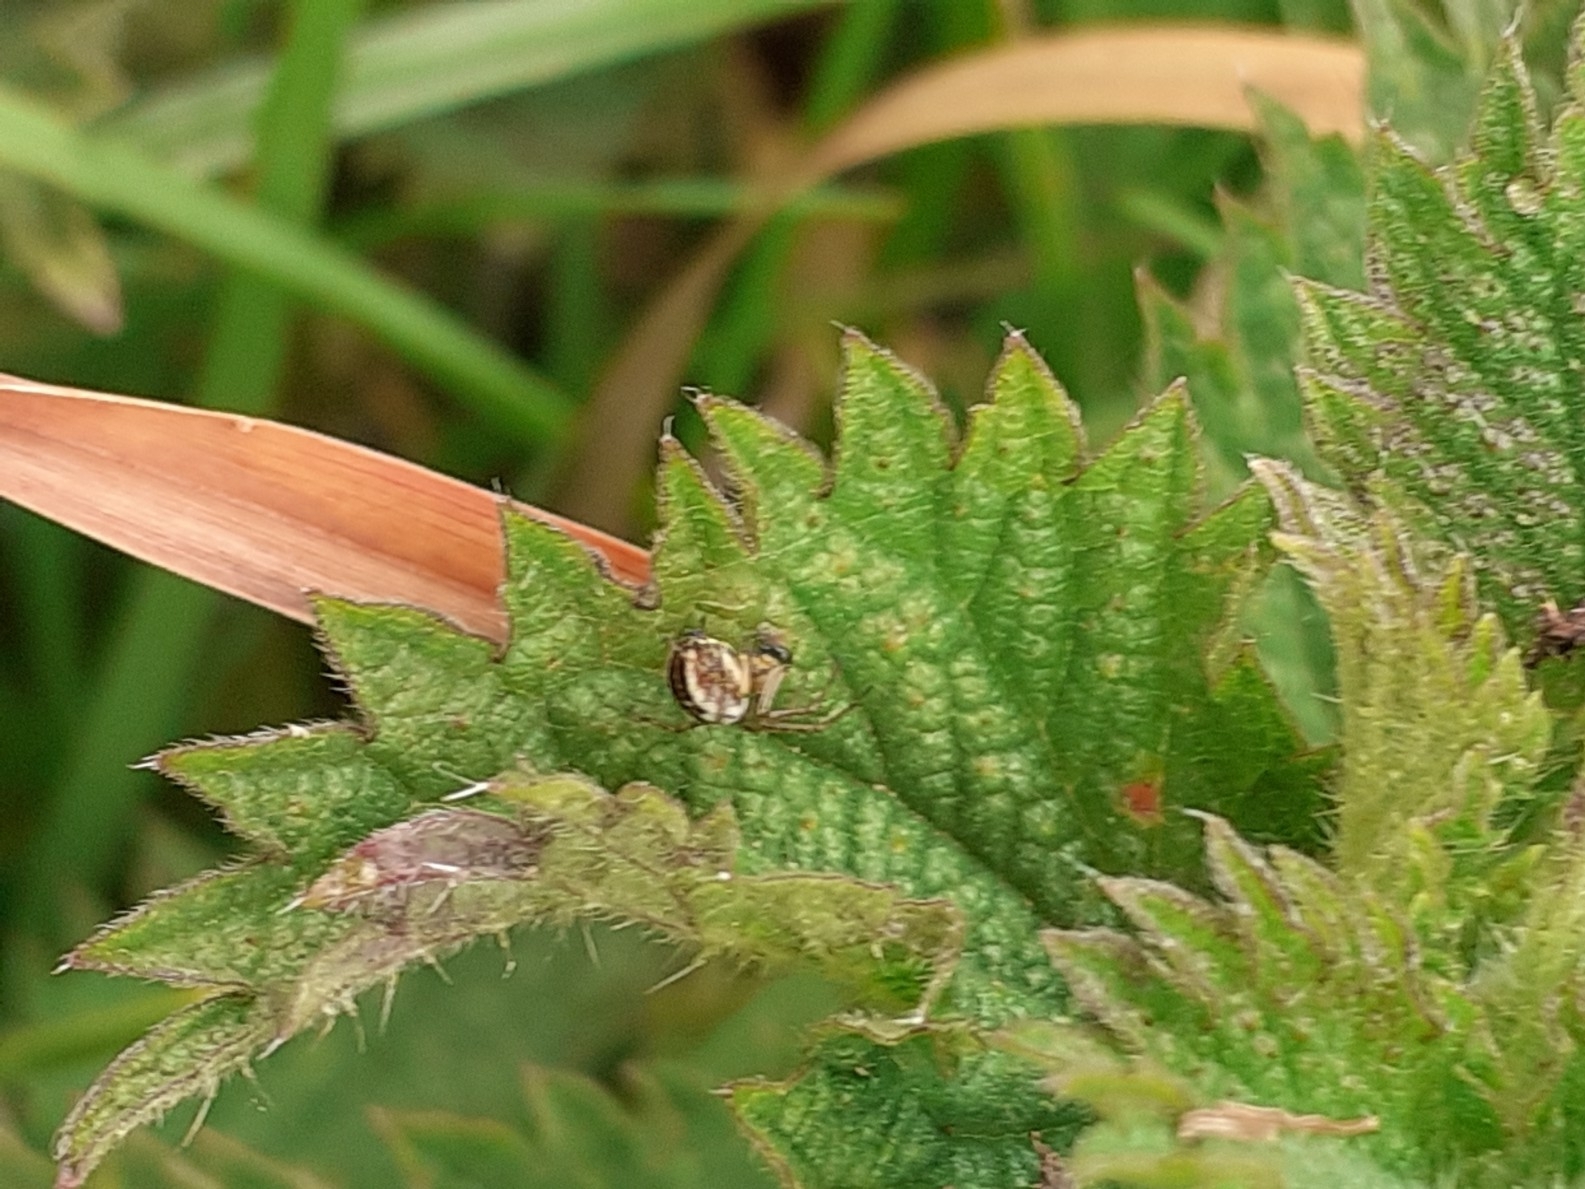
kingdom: Animalia
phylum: Arthropoda
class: Arachnida
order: Araneae
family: Araneidae
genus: Mangora
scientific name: Mangora acalypha
